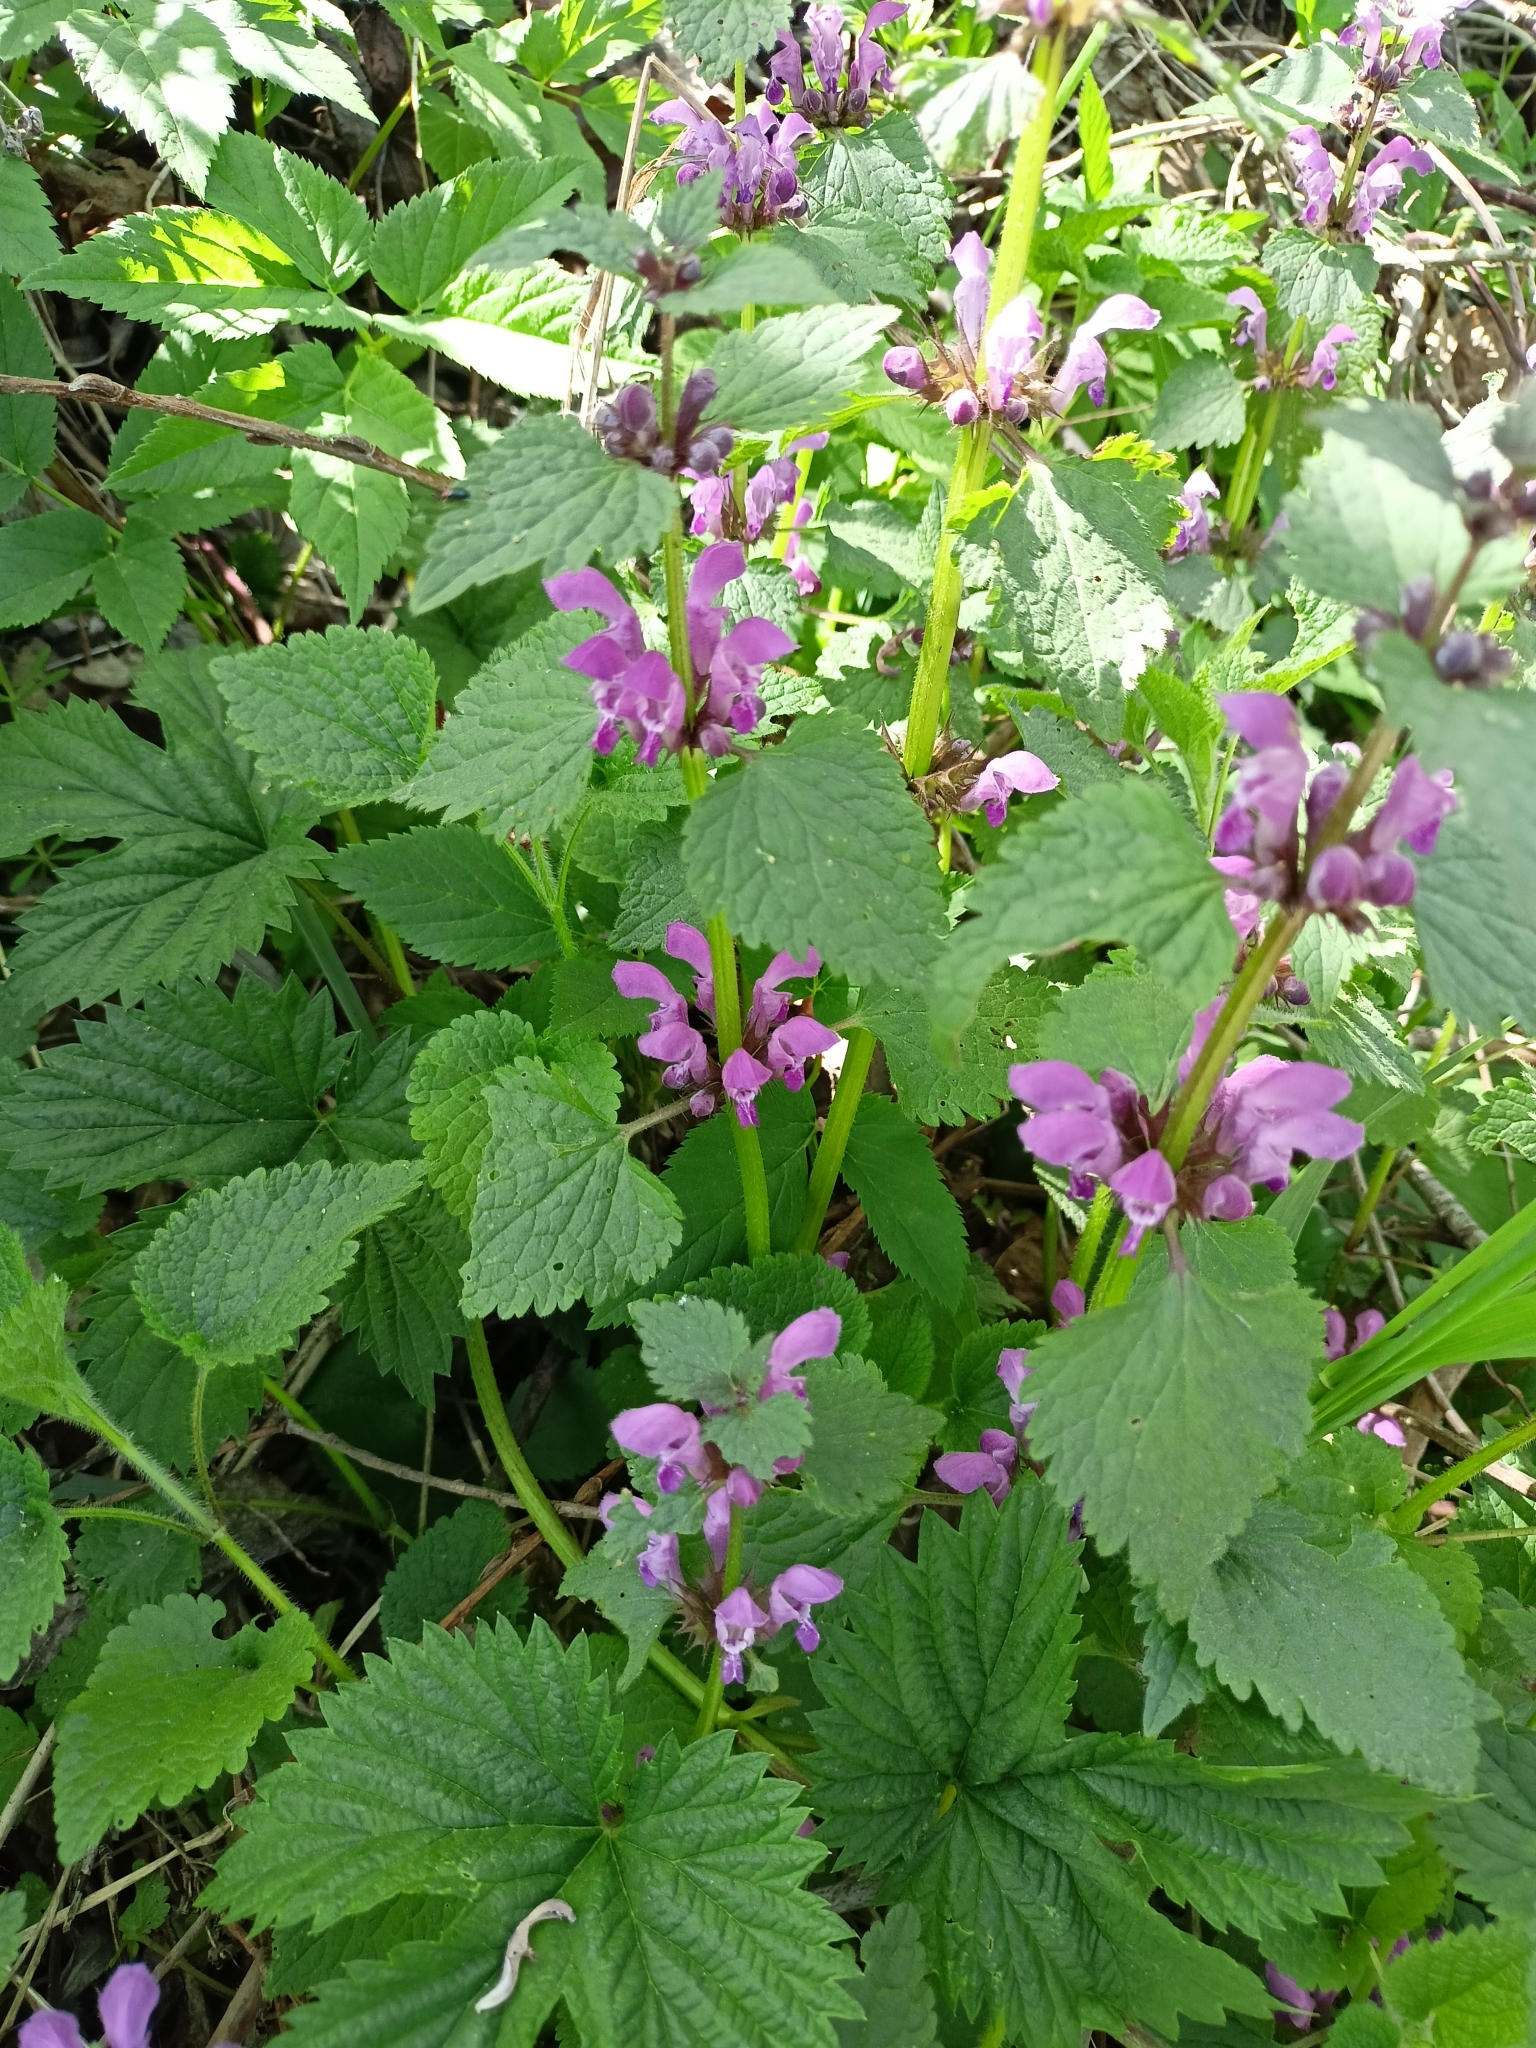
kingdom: Plantae
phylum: Tracheophyta
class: Magnoliopsida
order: Lamiales
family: Lamiaceae
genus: Lamium
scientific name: Lamium maculatum
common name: Spotted dead-nettle
